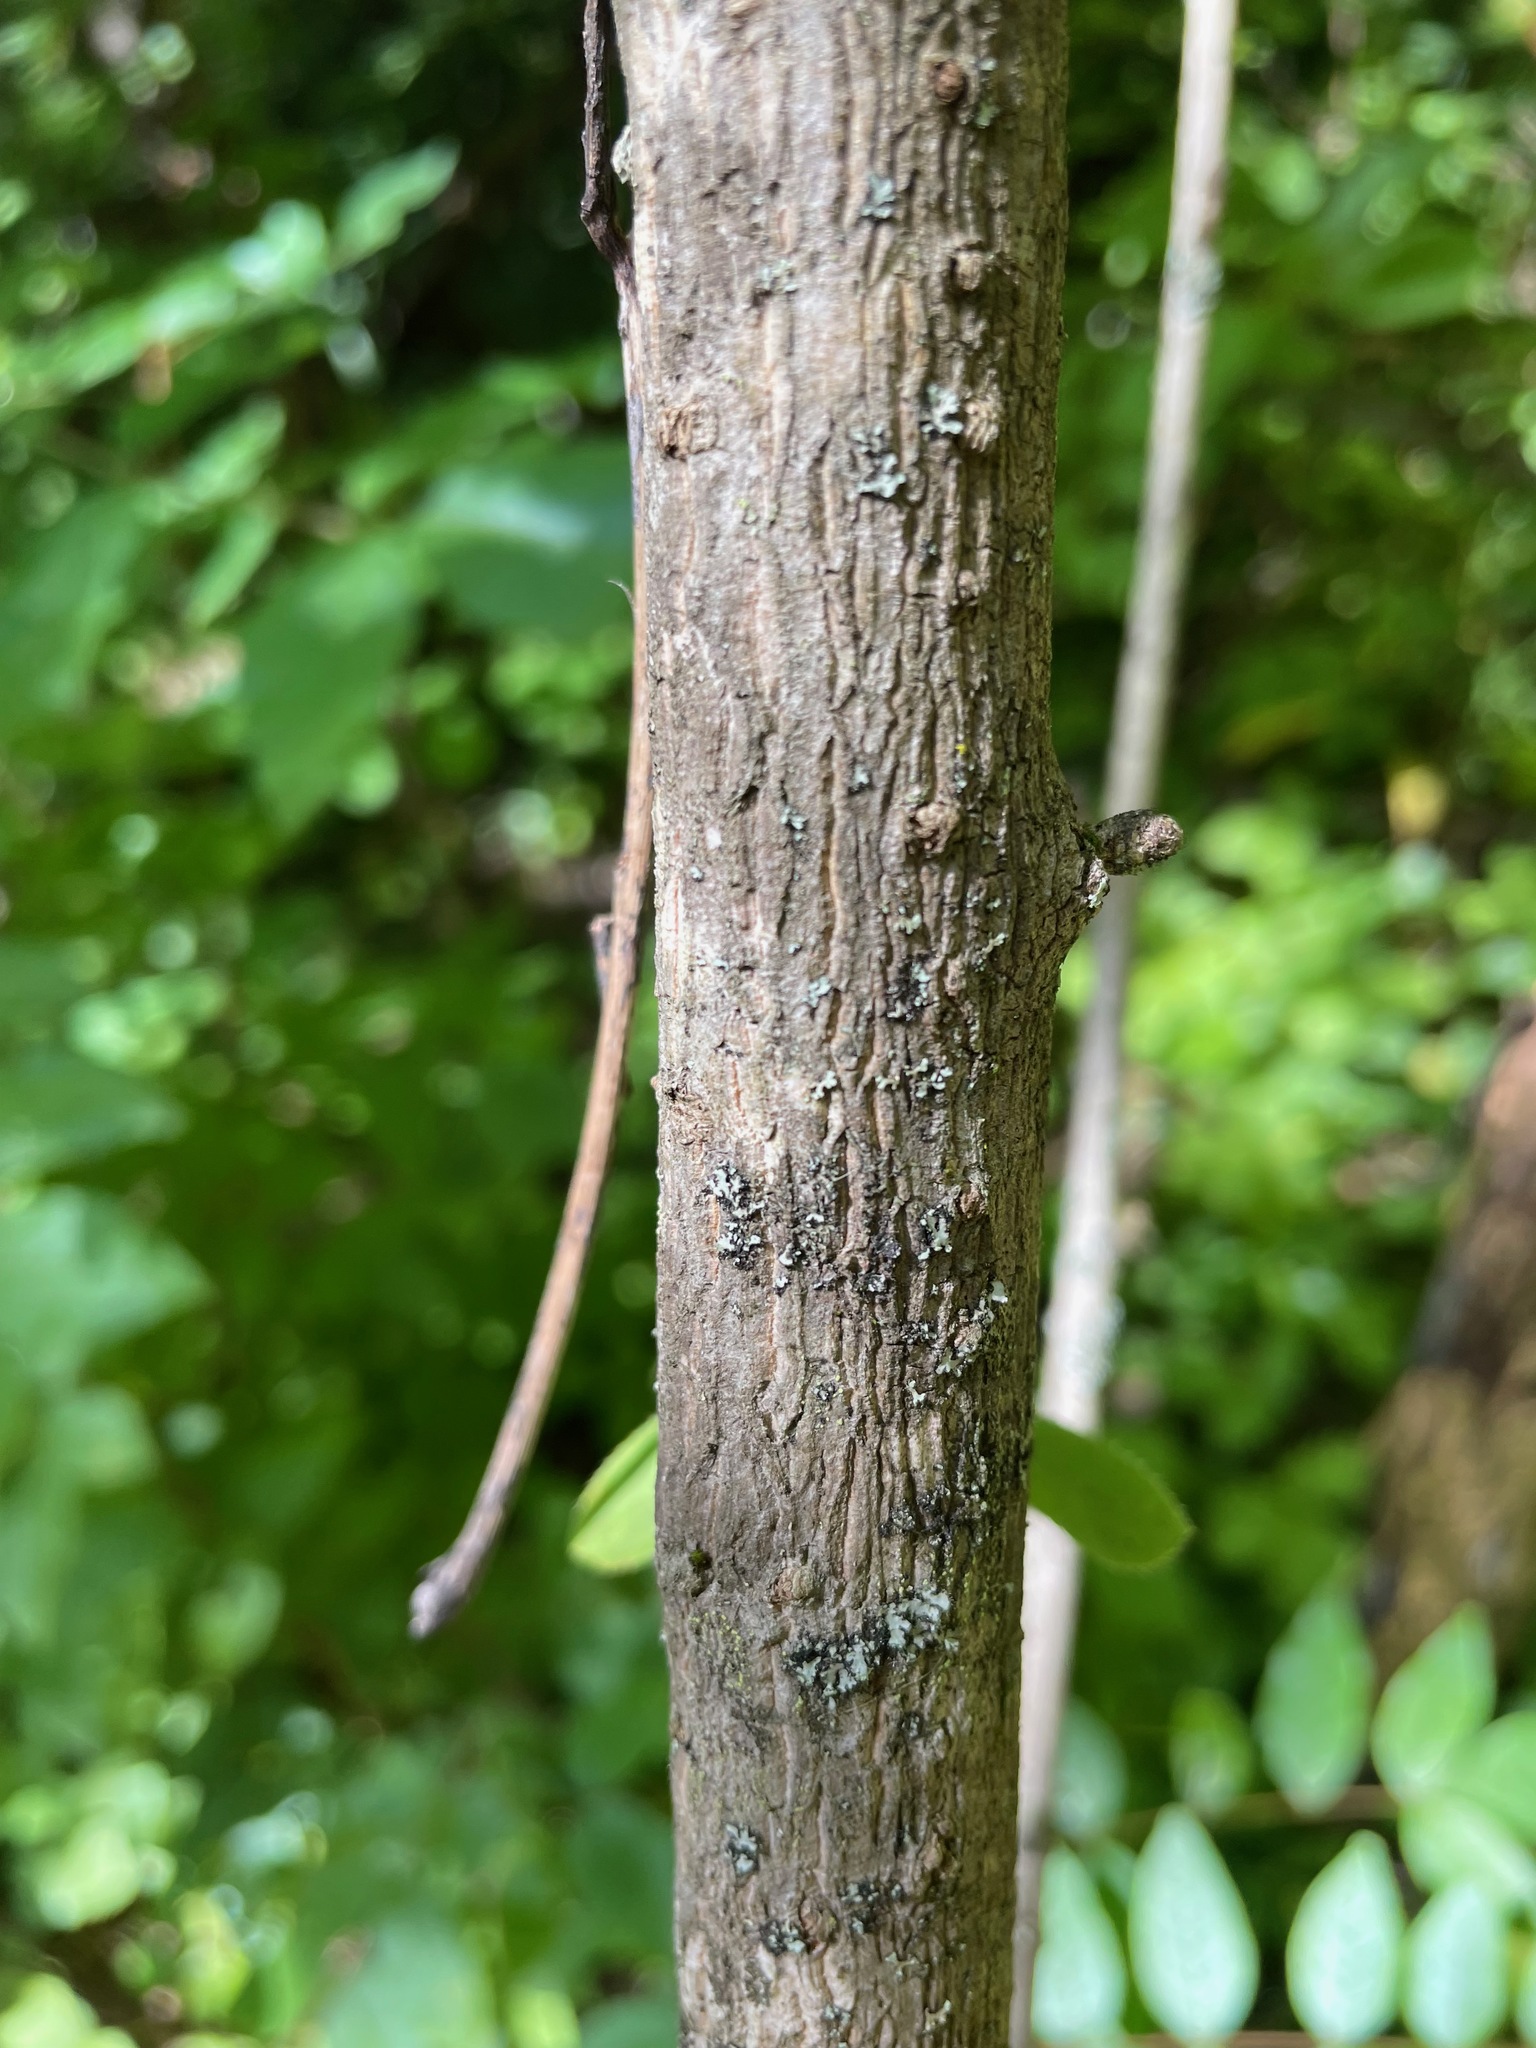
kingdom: Plantae
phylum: Tracheophyta
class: Magnoliopsida
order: Ranunculales
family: Berberidaceae
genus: Berberis
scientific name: Berberis vulgaris
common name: Barberry
